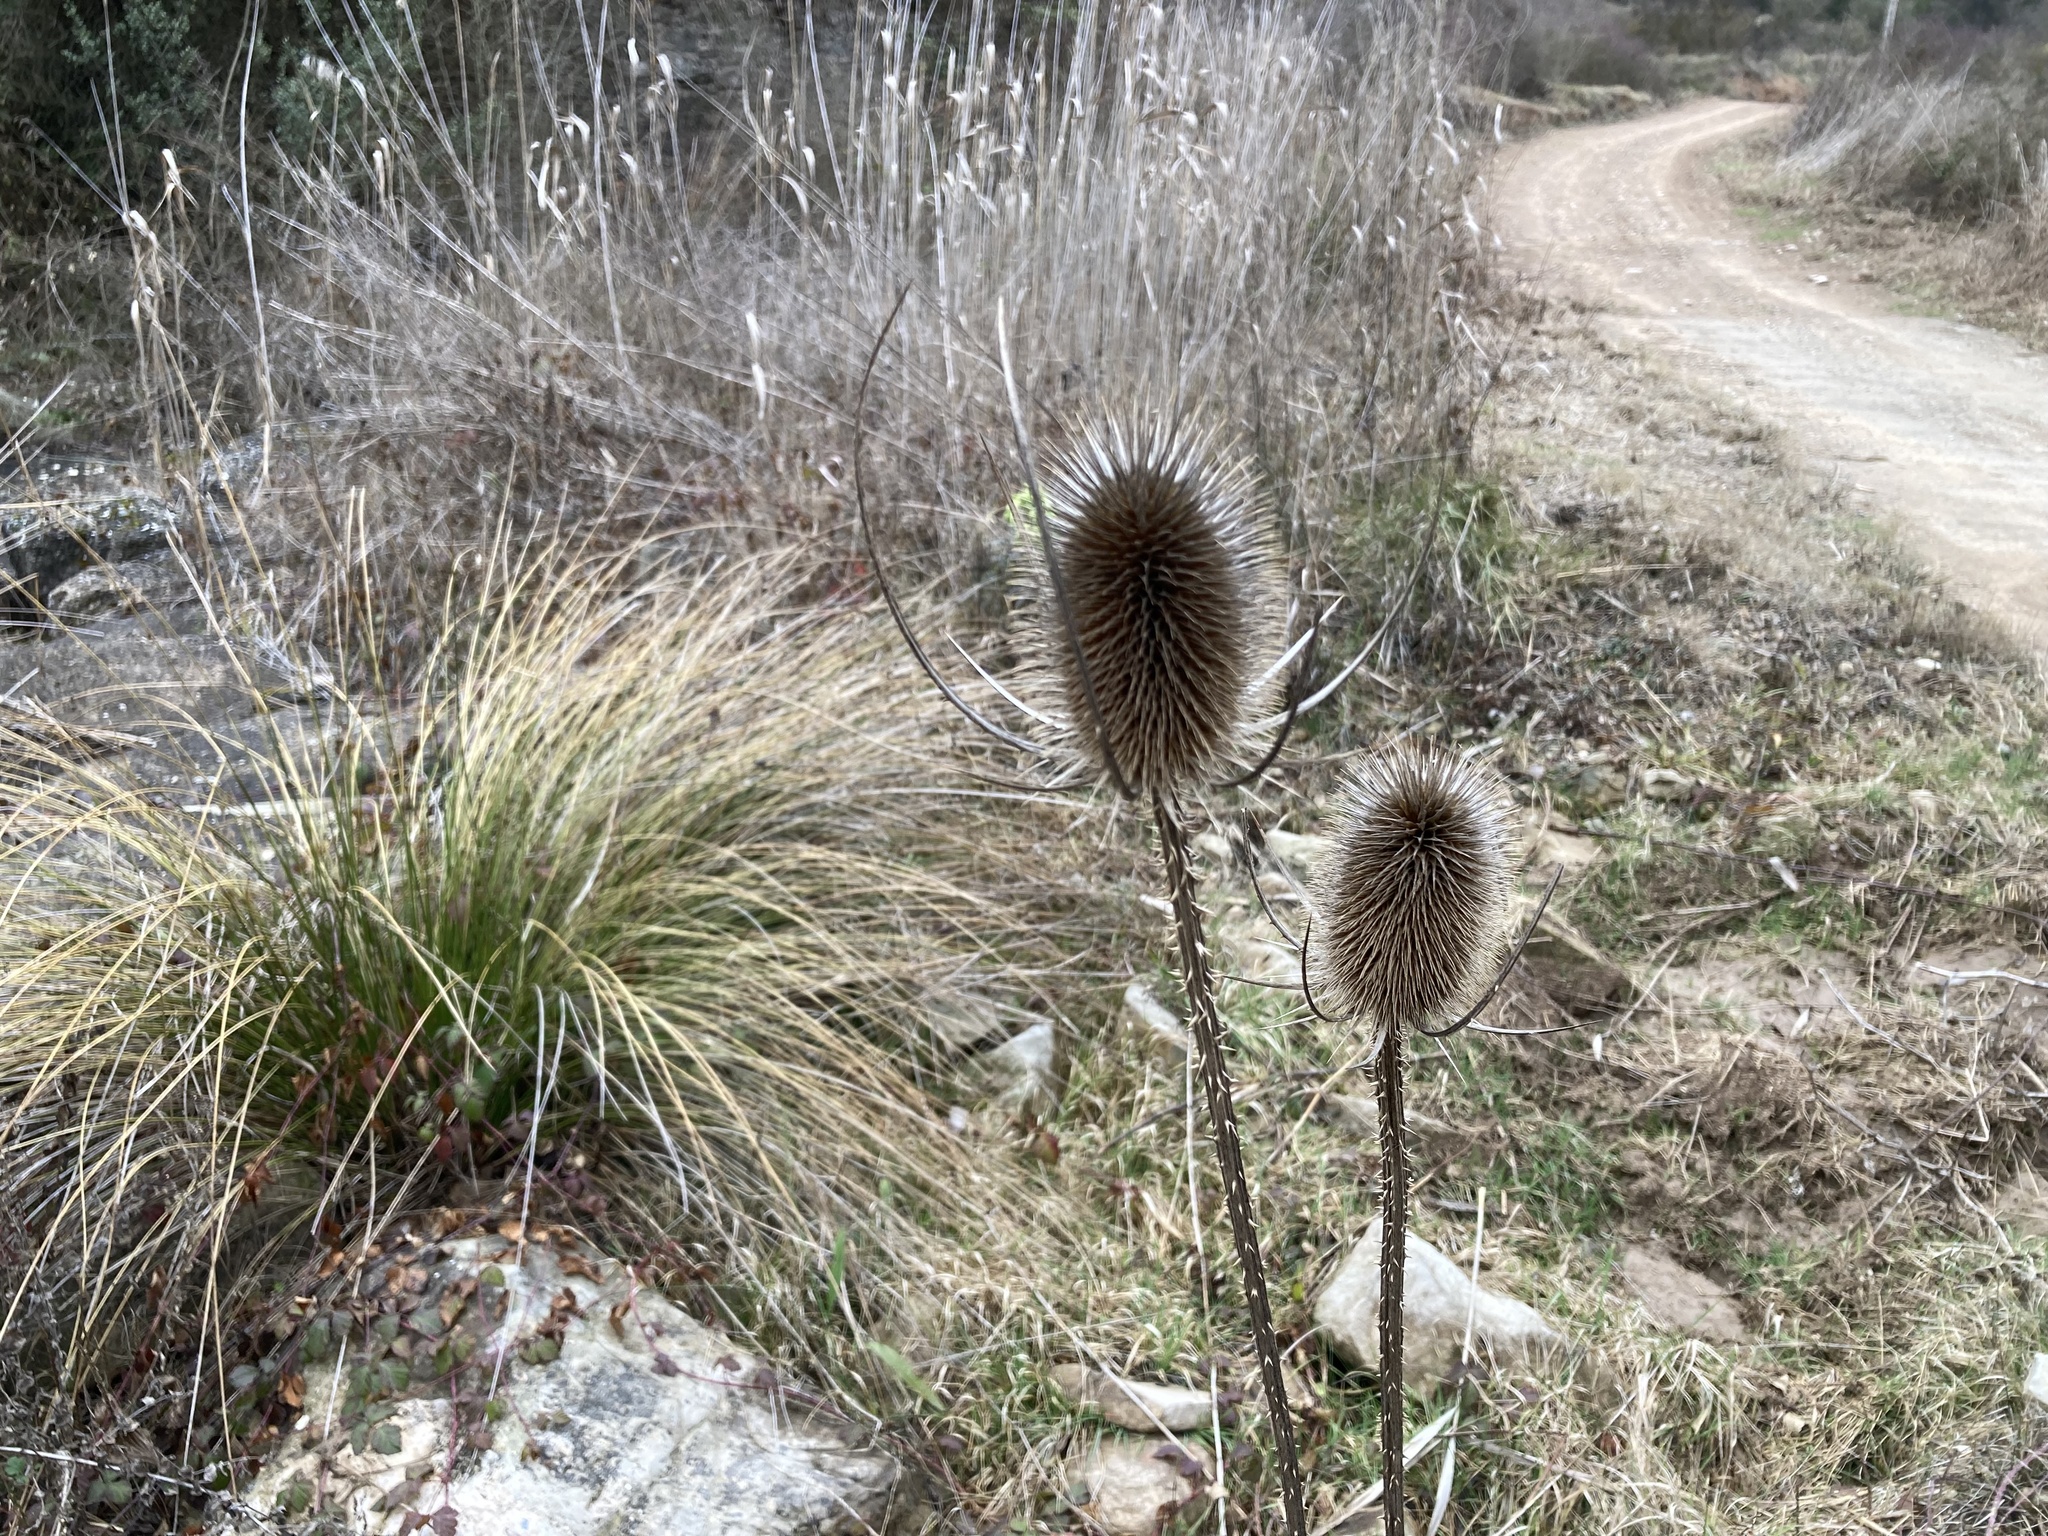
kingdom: Plantae
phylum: Tracheophyta
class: Magnoliopsida
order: Dipsacales
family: Caprifoliaceae
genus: Dipsacus
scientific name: Dipsacus fullonum
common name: Teasel
